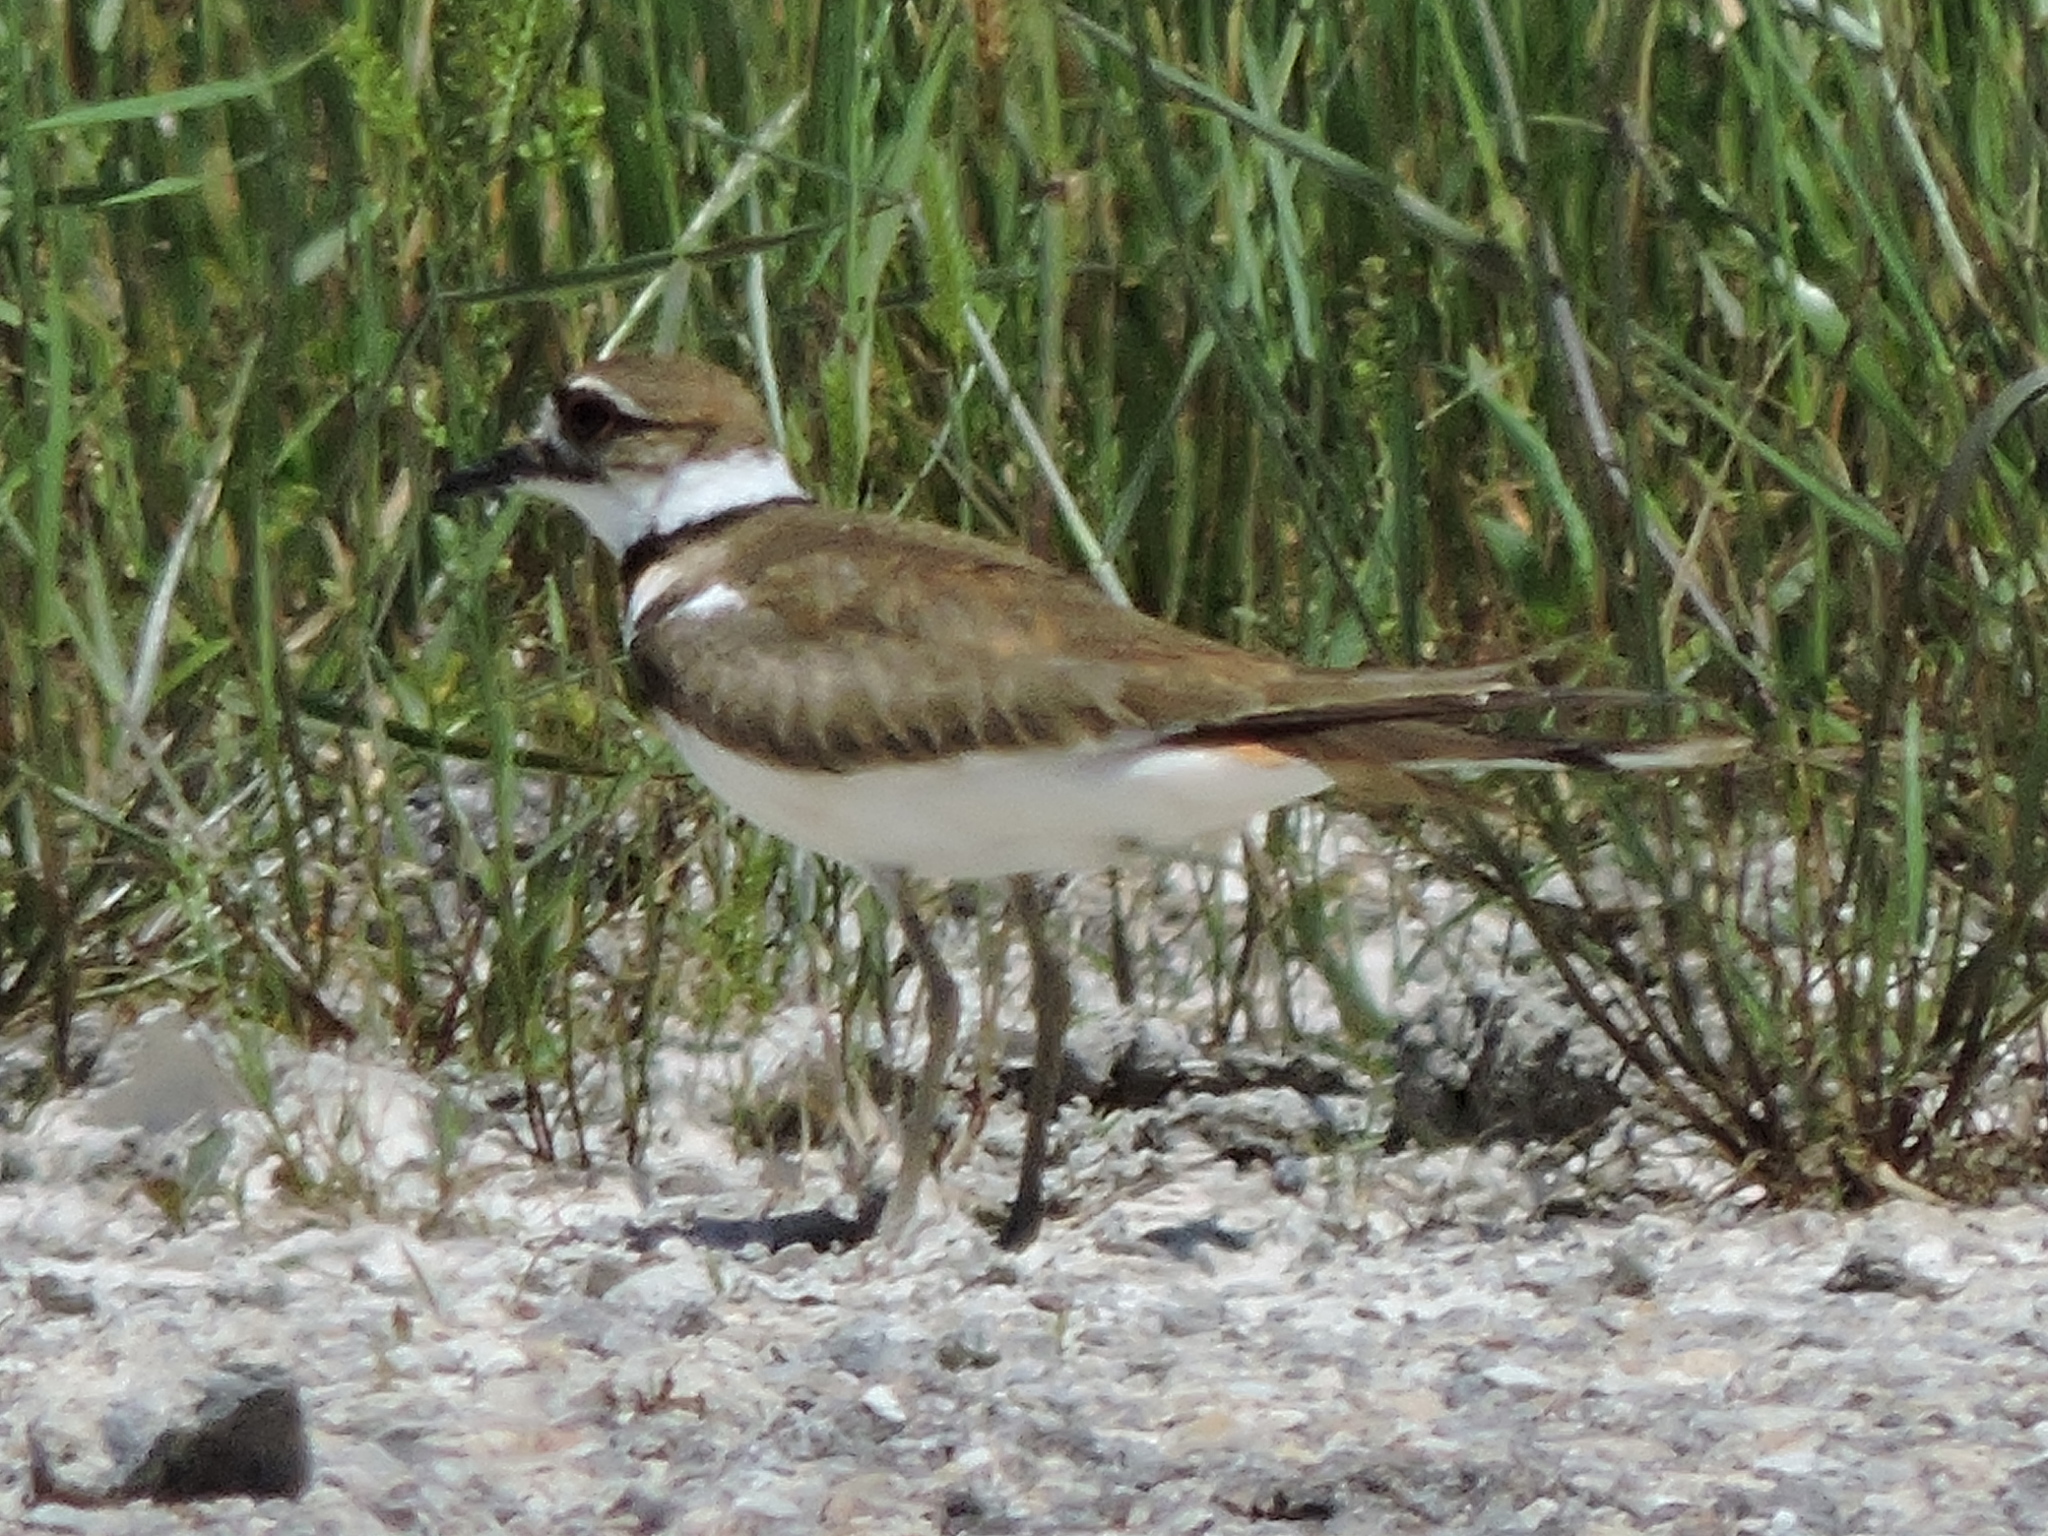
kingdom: Animalia
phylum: Chordata
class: Aves
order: Charadriiformes
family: Charadriidae
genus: Charadrius
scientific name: Charadrius vociferus
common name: Killdeer
